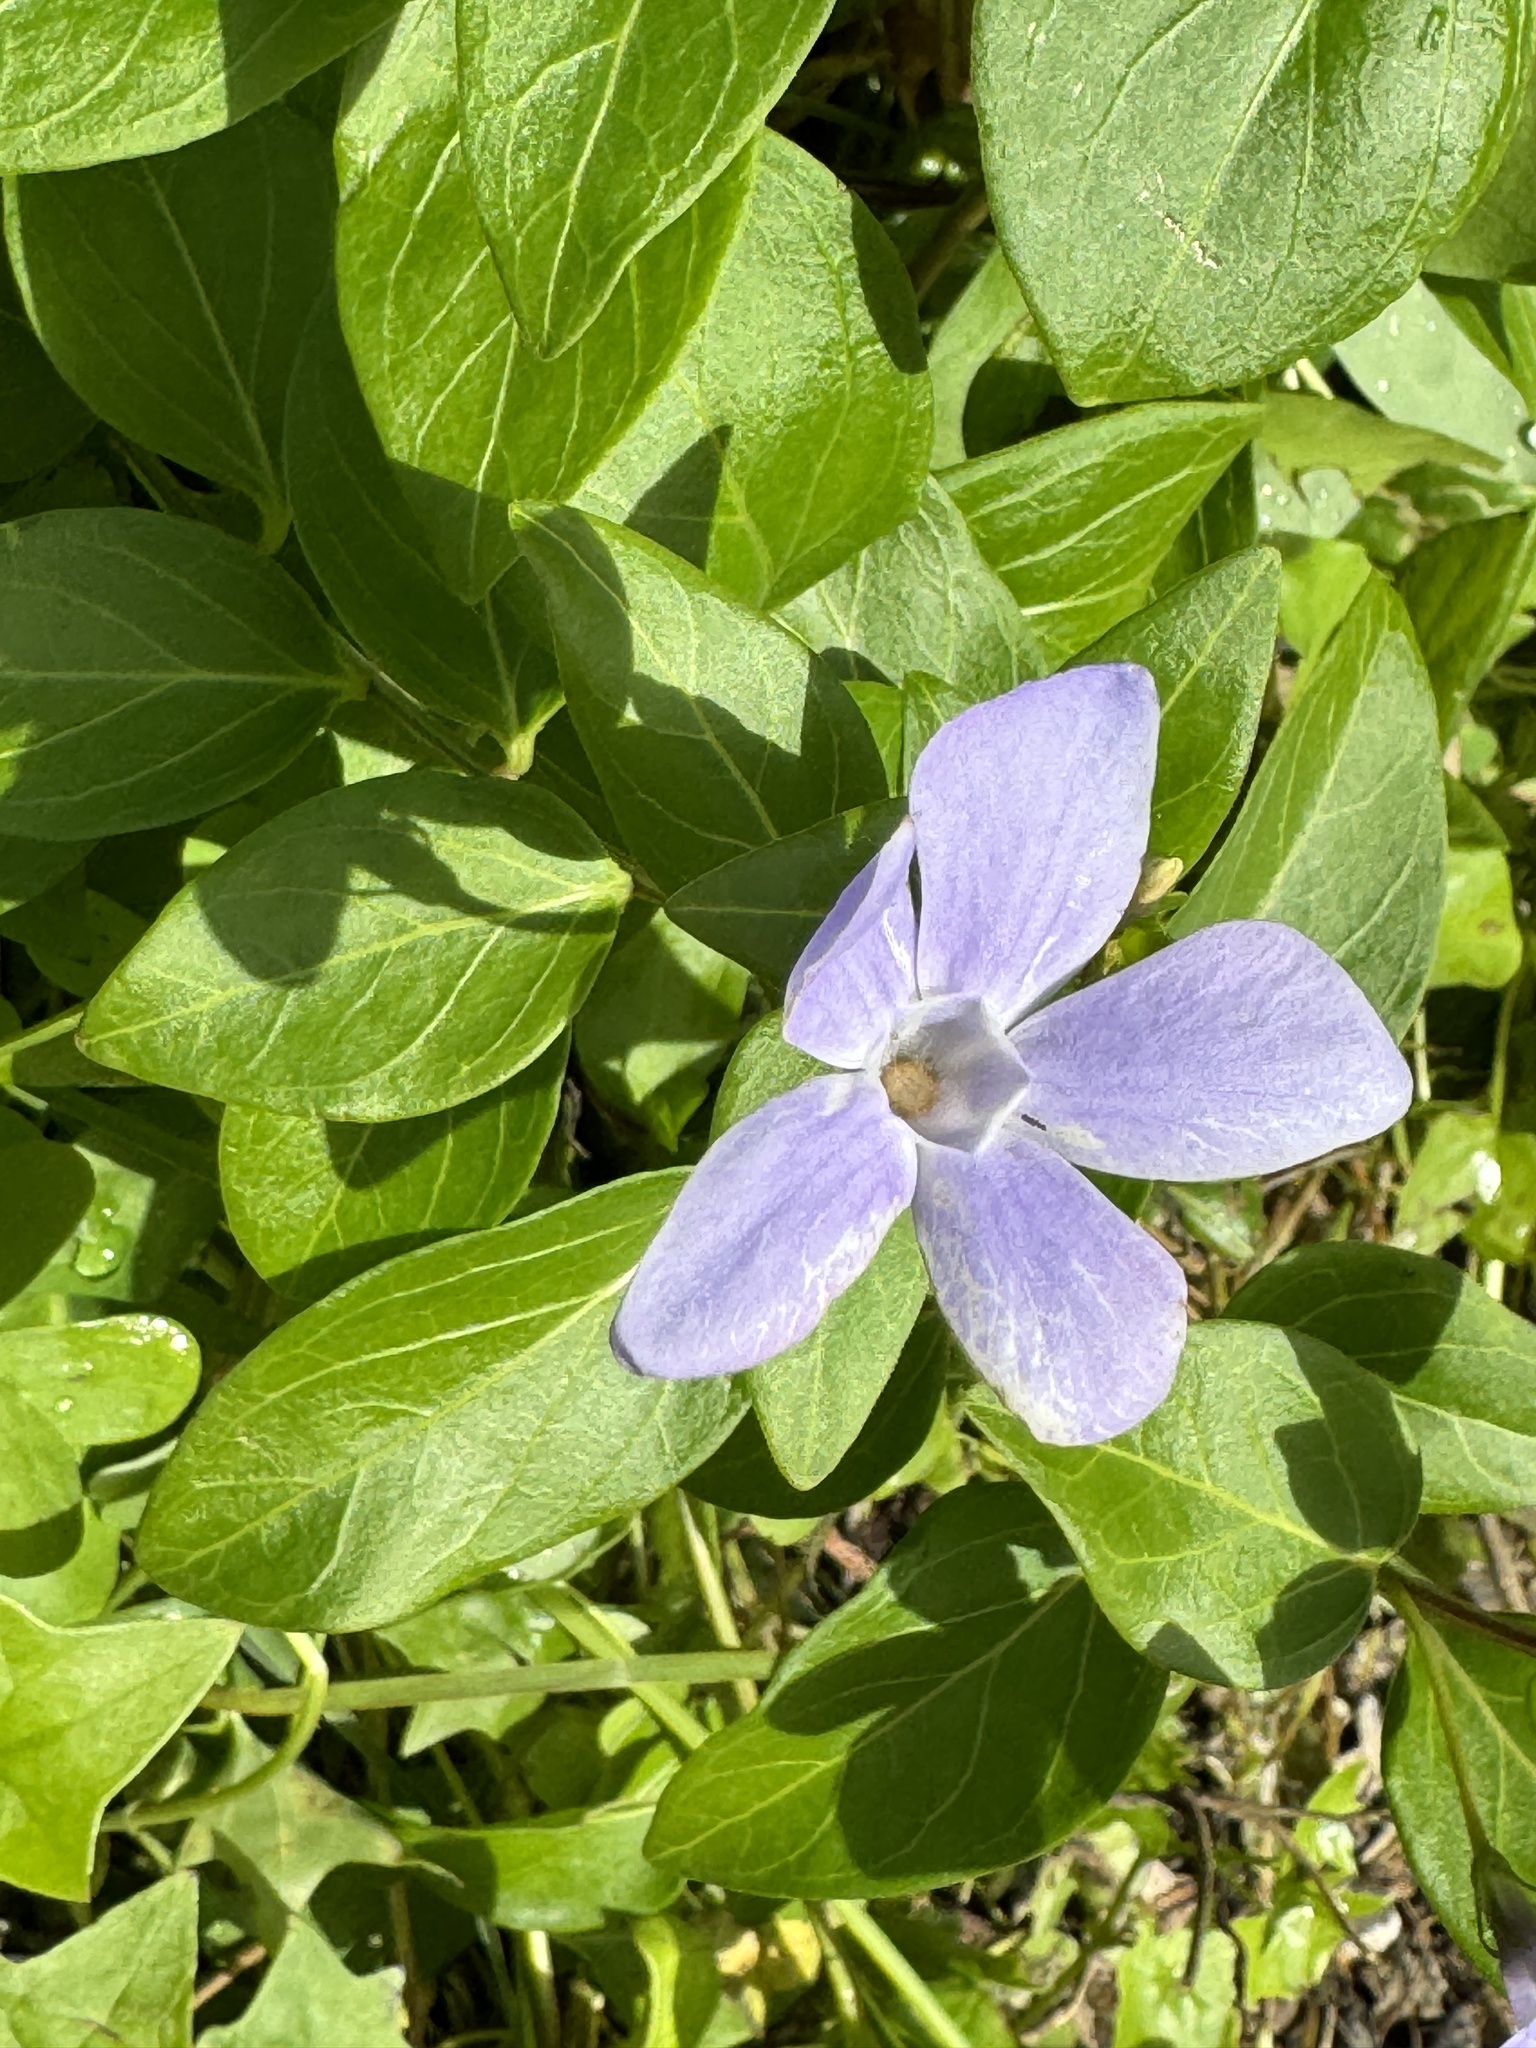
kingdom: Plantae
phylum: Tracheophyta
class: Magnoliopsida
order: Gentianales
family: Apocynaceae
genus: Vinca
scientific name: Vinca difformis
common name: Intermediate periwinkle
